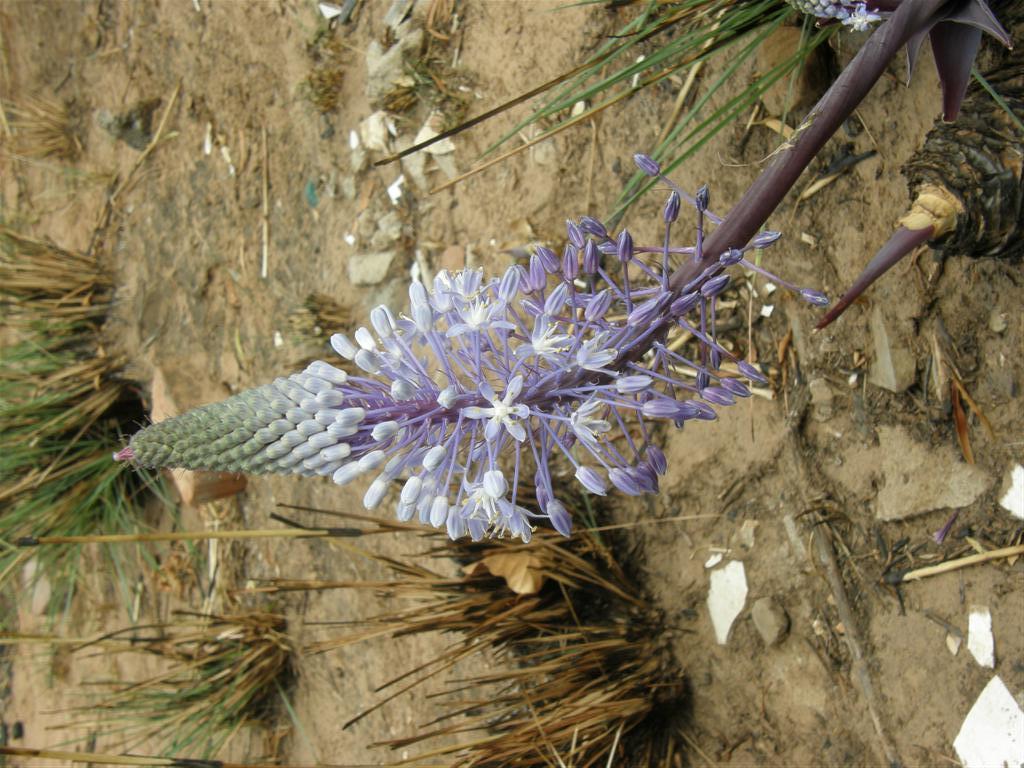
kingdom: Plantae
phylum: Tracheophyta
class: Liliopsida
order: Asparagales
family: Asparagaceae
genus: Merwilla
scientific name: Merwilla plumbea
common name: Blue-squill
